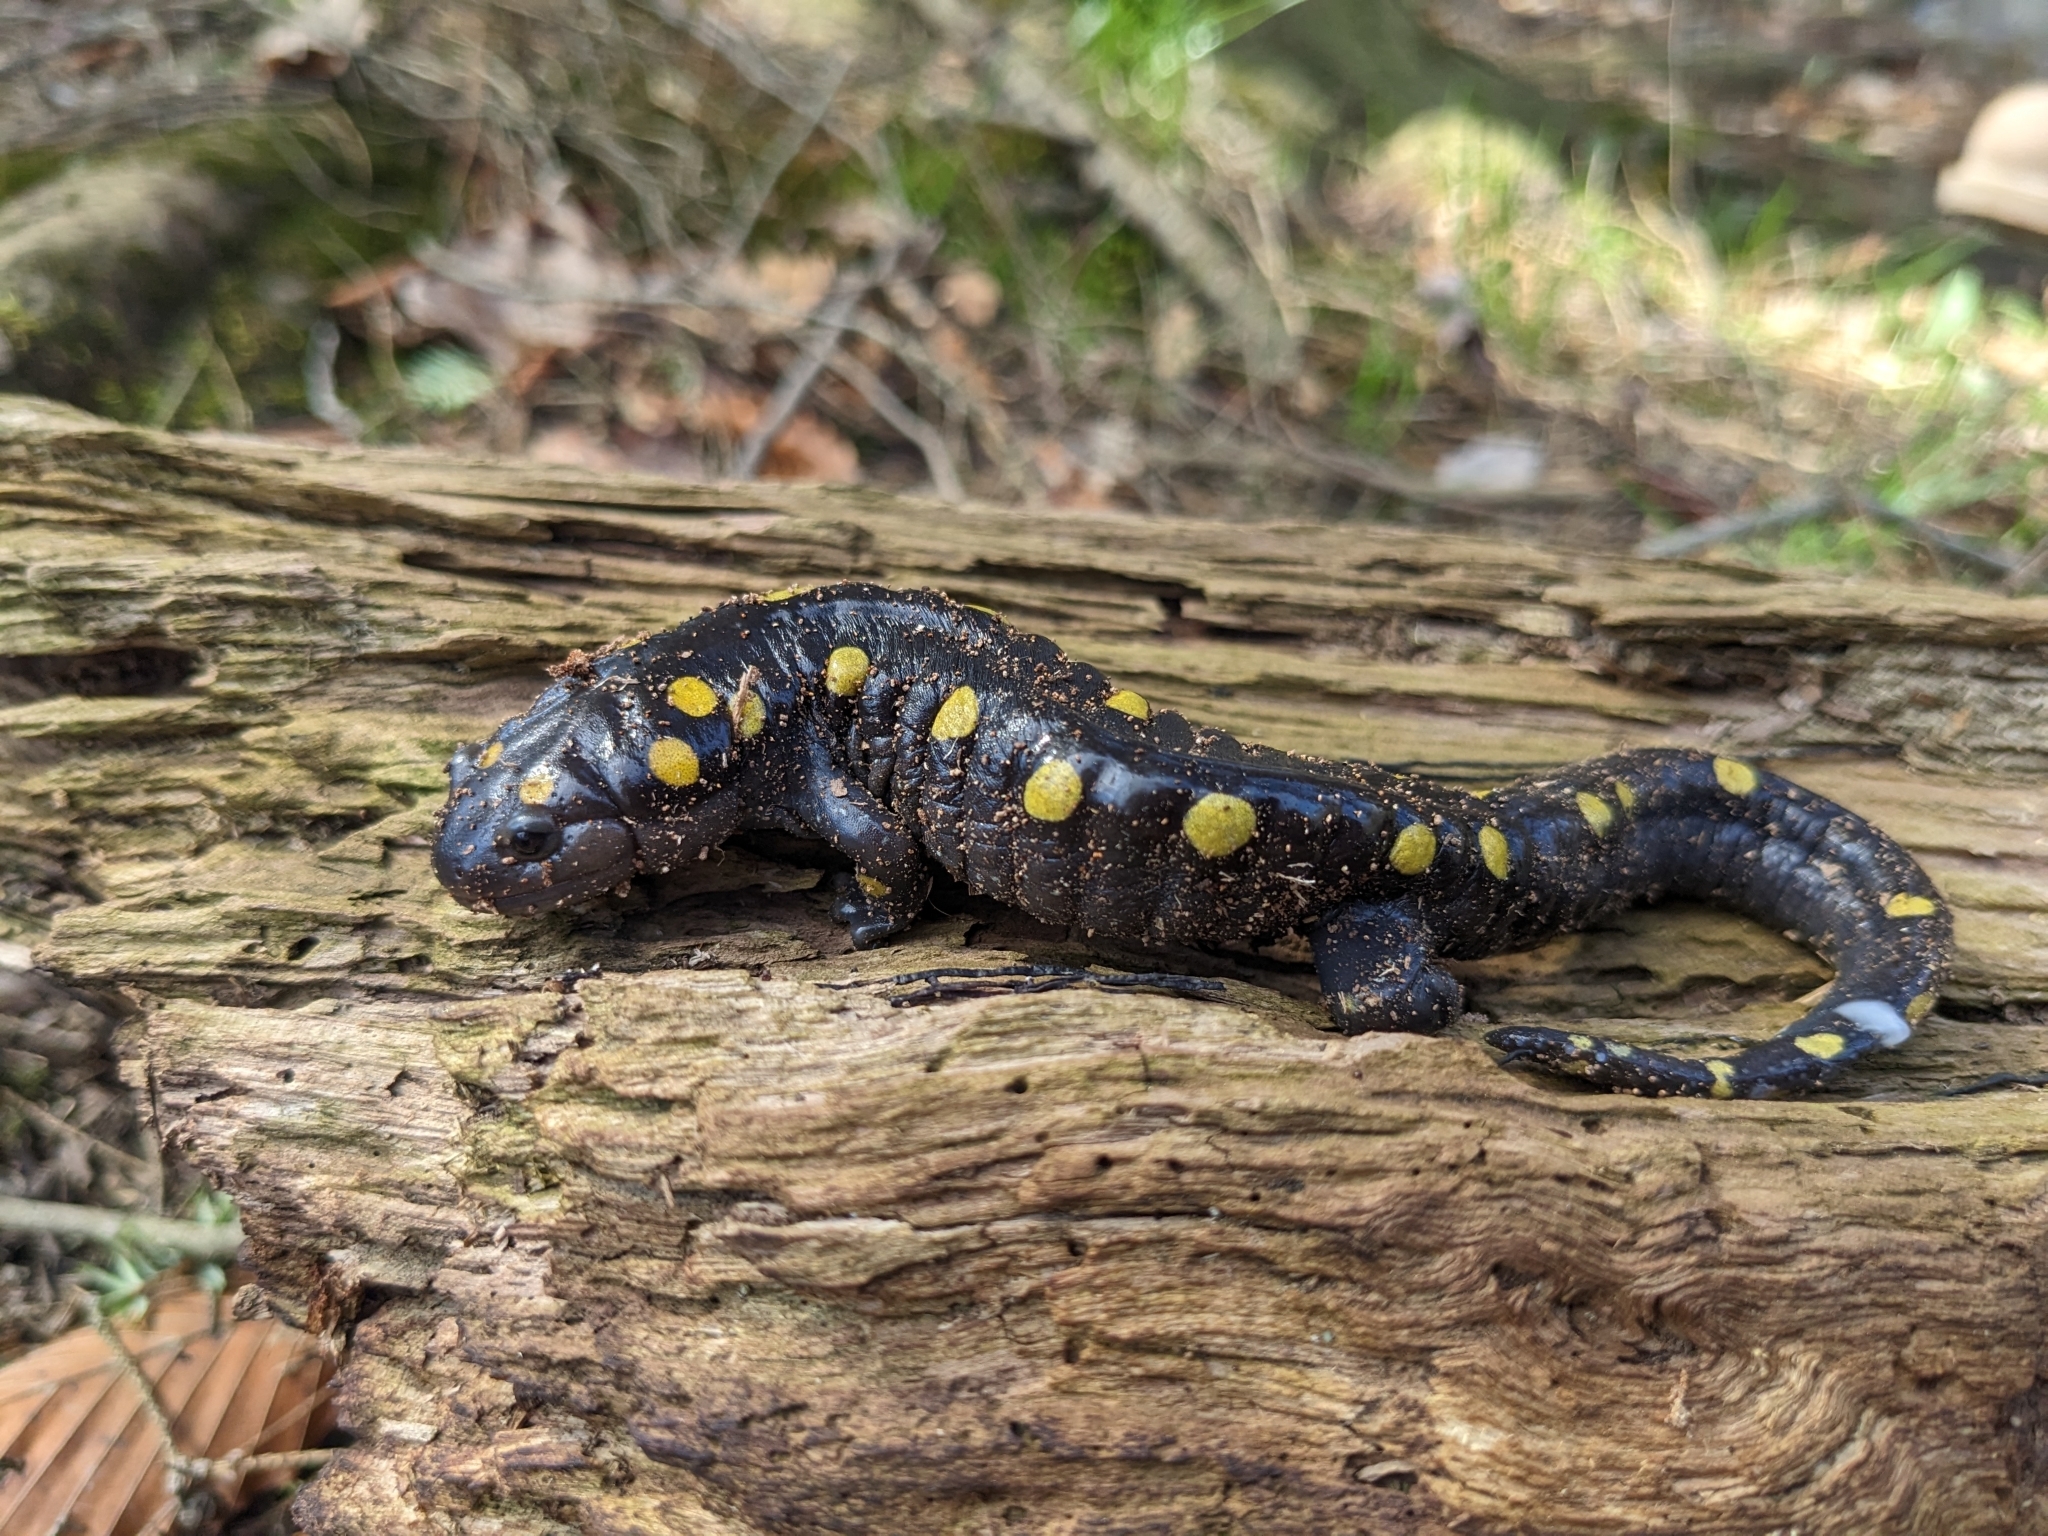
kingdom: Animalia
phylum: Chordata
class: Amphibia
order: Caudata
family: Ambystomatidae
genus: Ambystoma
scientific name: Ambystoma maculatum
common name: Spotted salamander
